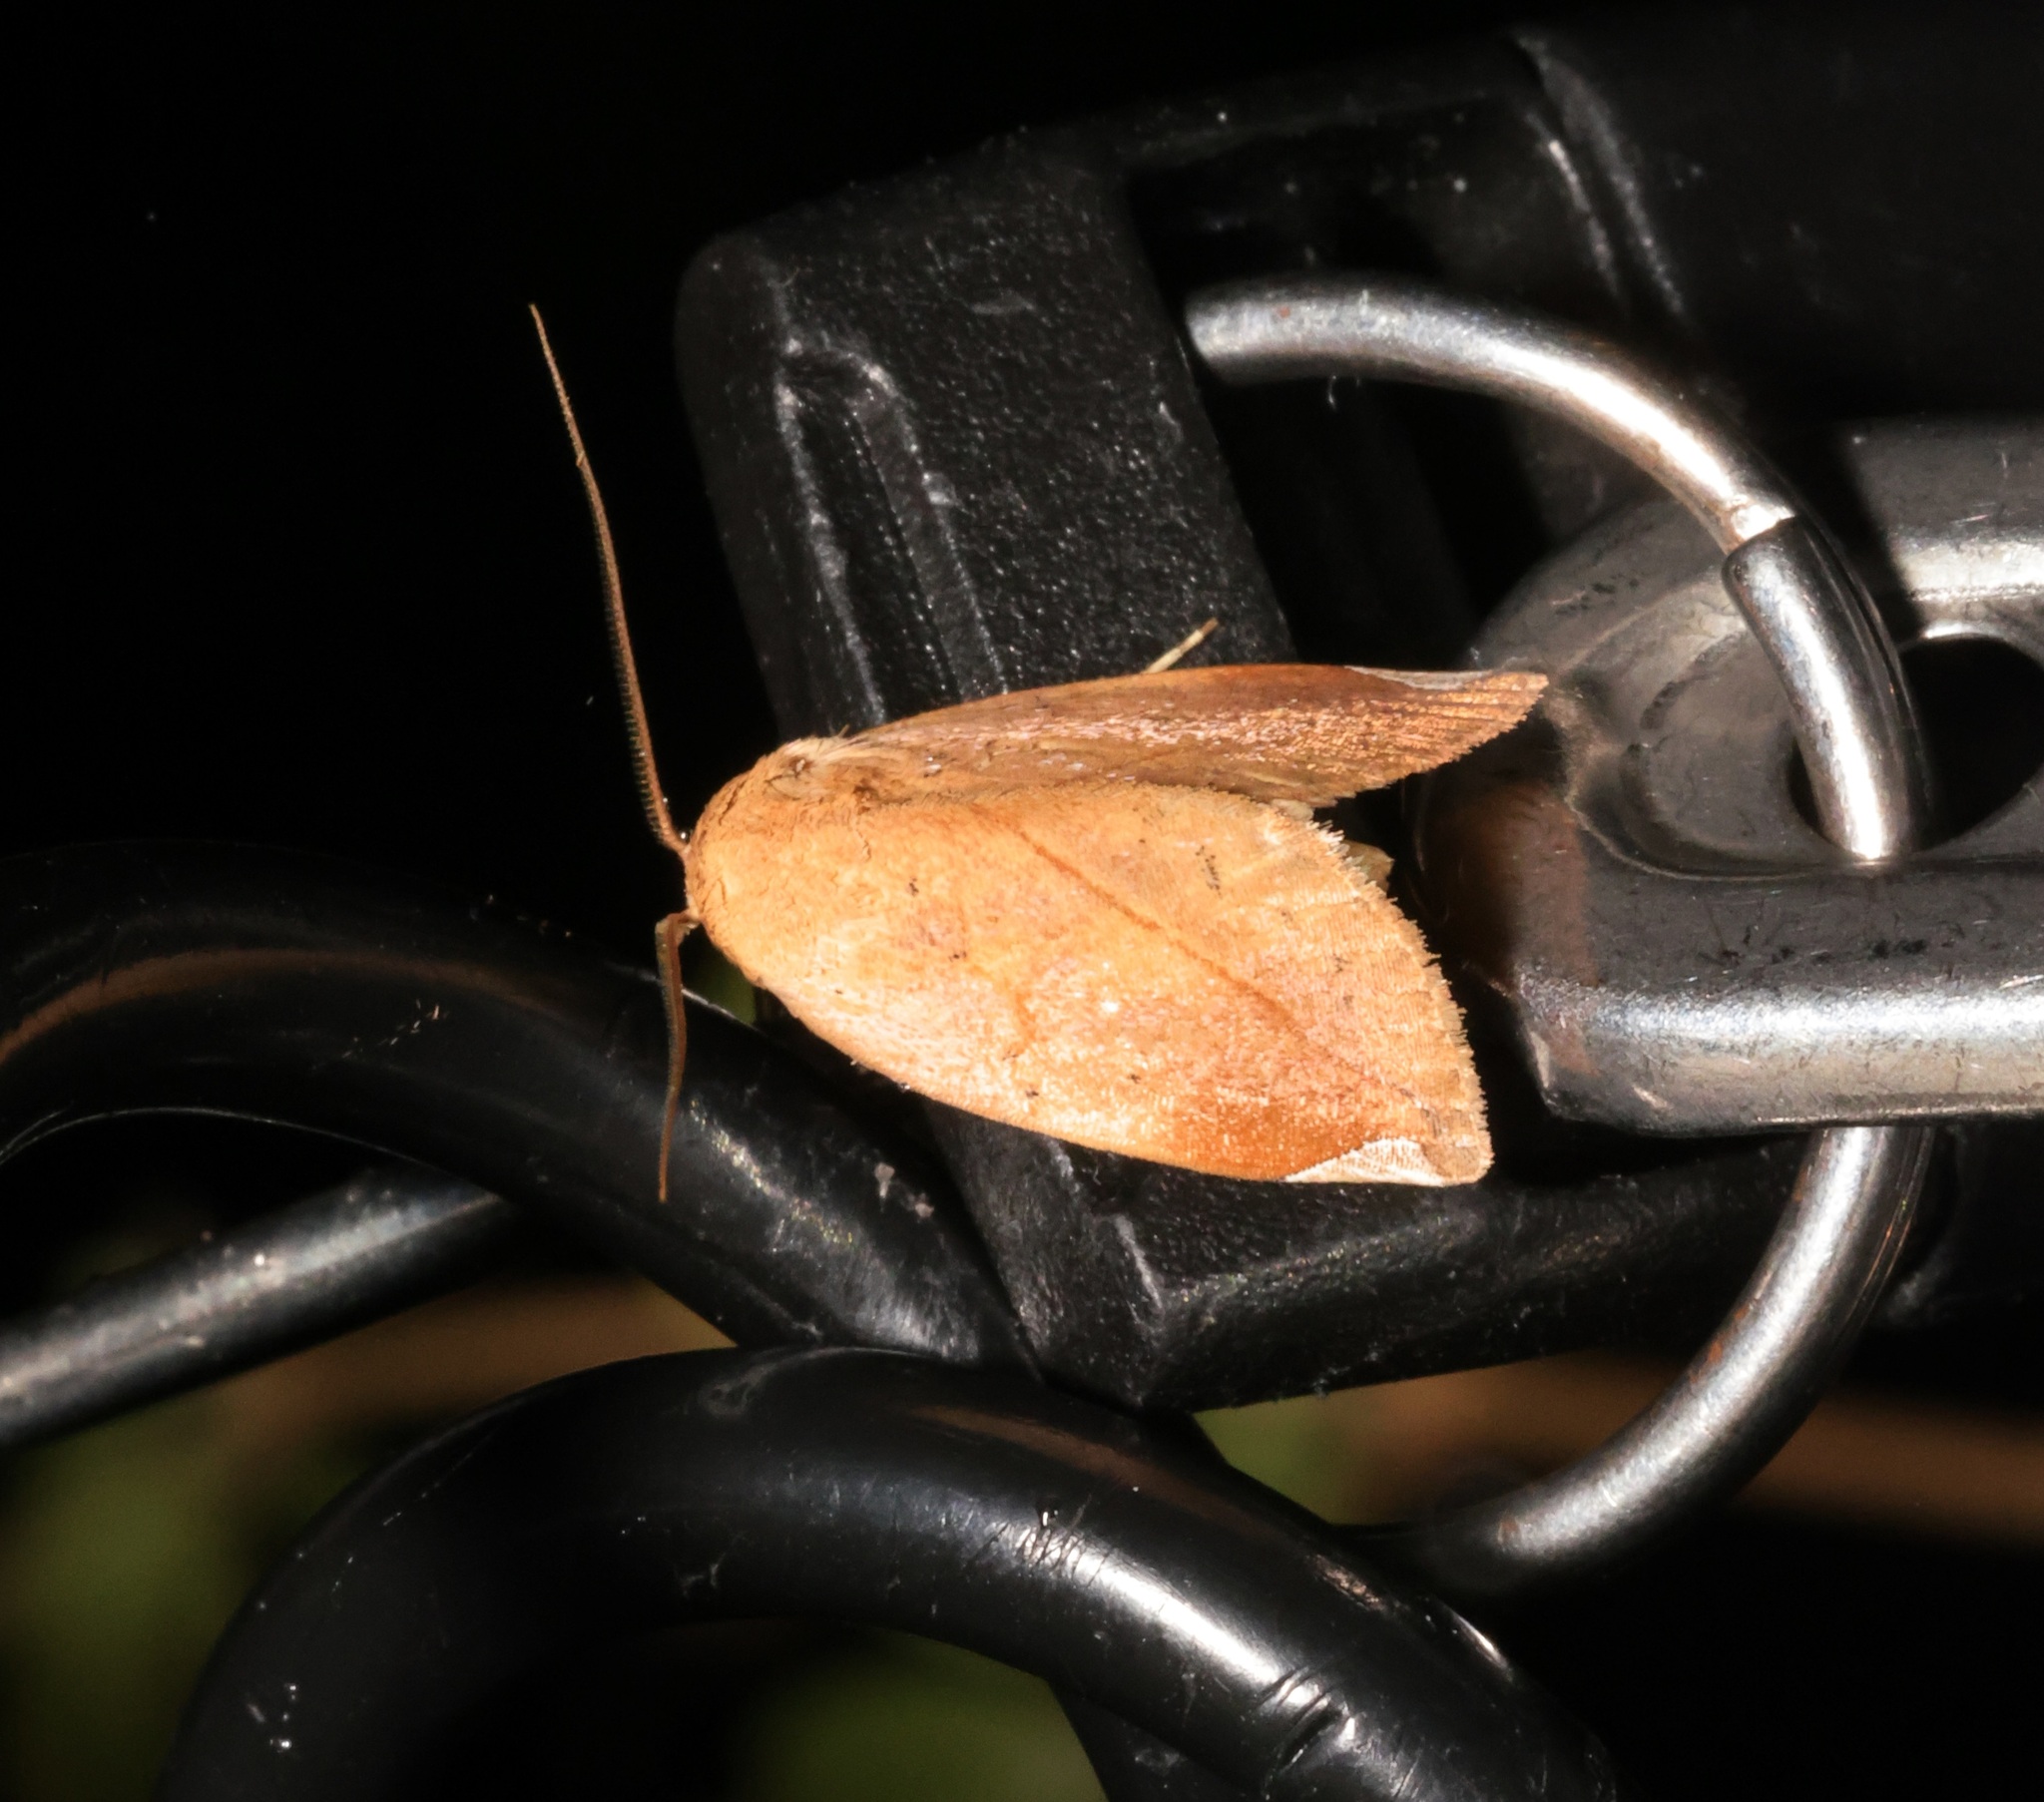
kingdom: Animalia
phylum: Arthropoda
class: Insecta
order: Lepidoptera
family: Nolidae
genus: Negeta
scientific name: Negeta contrariata
